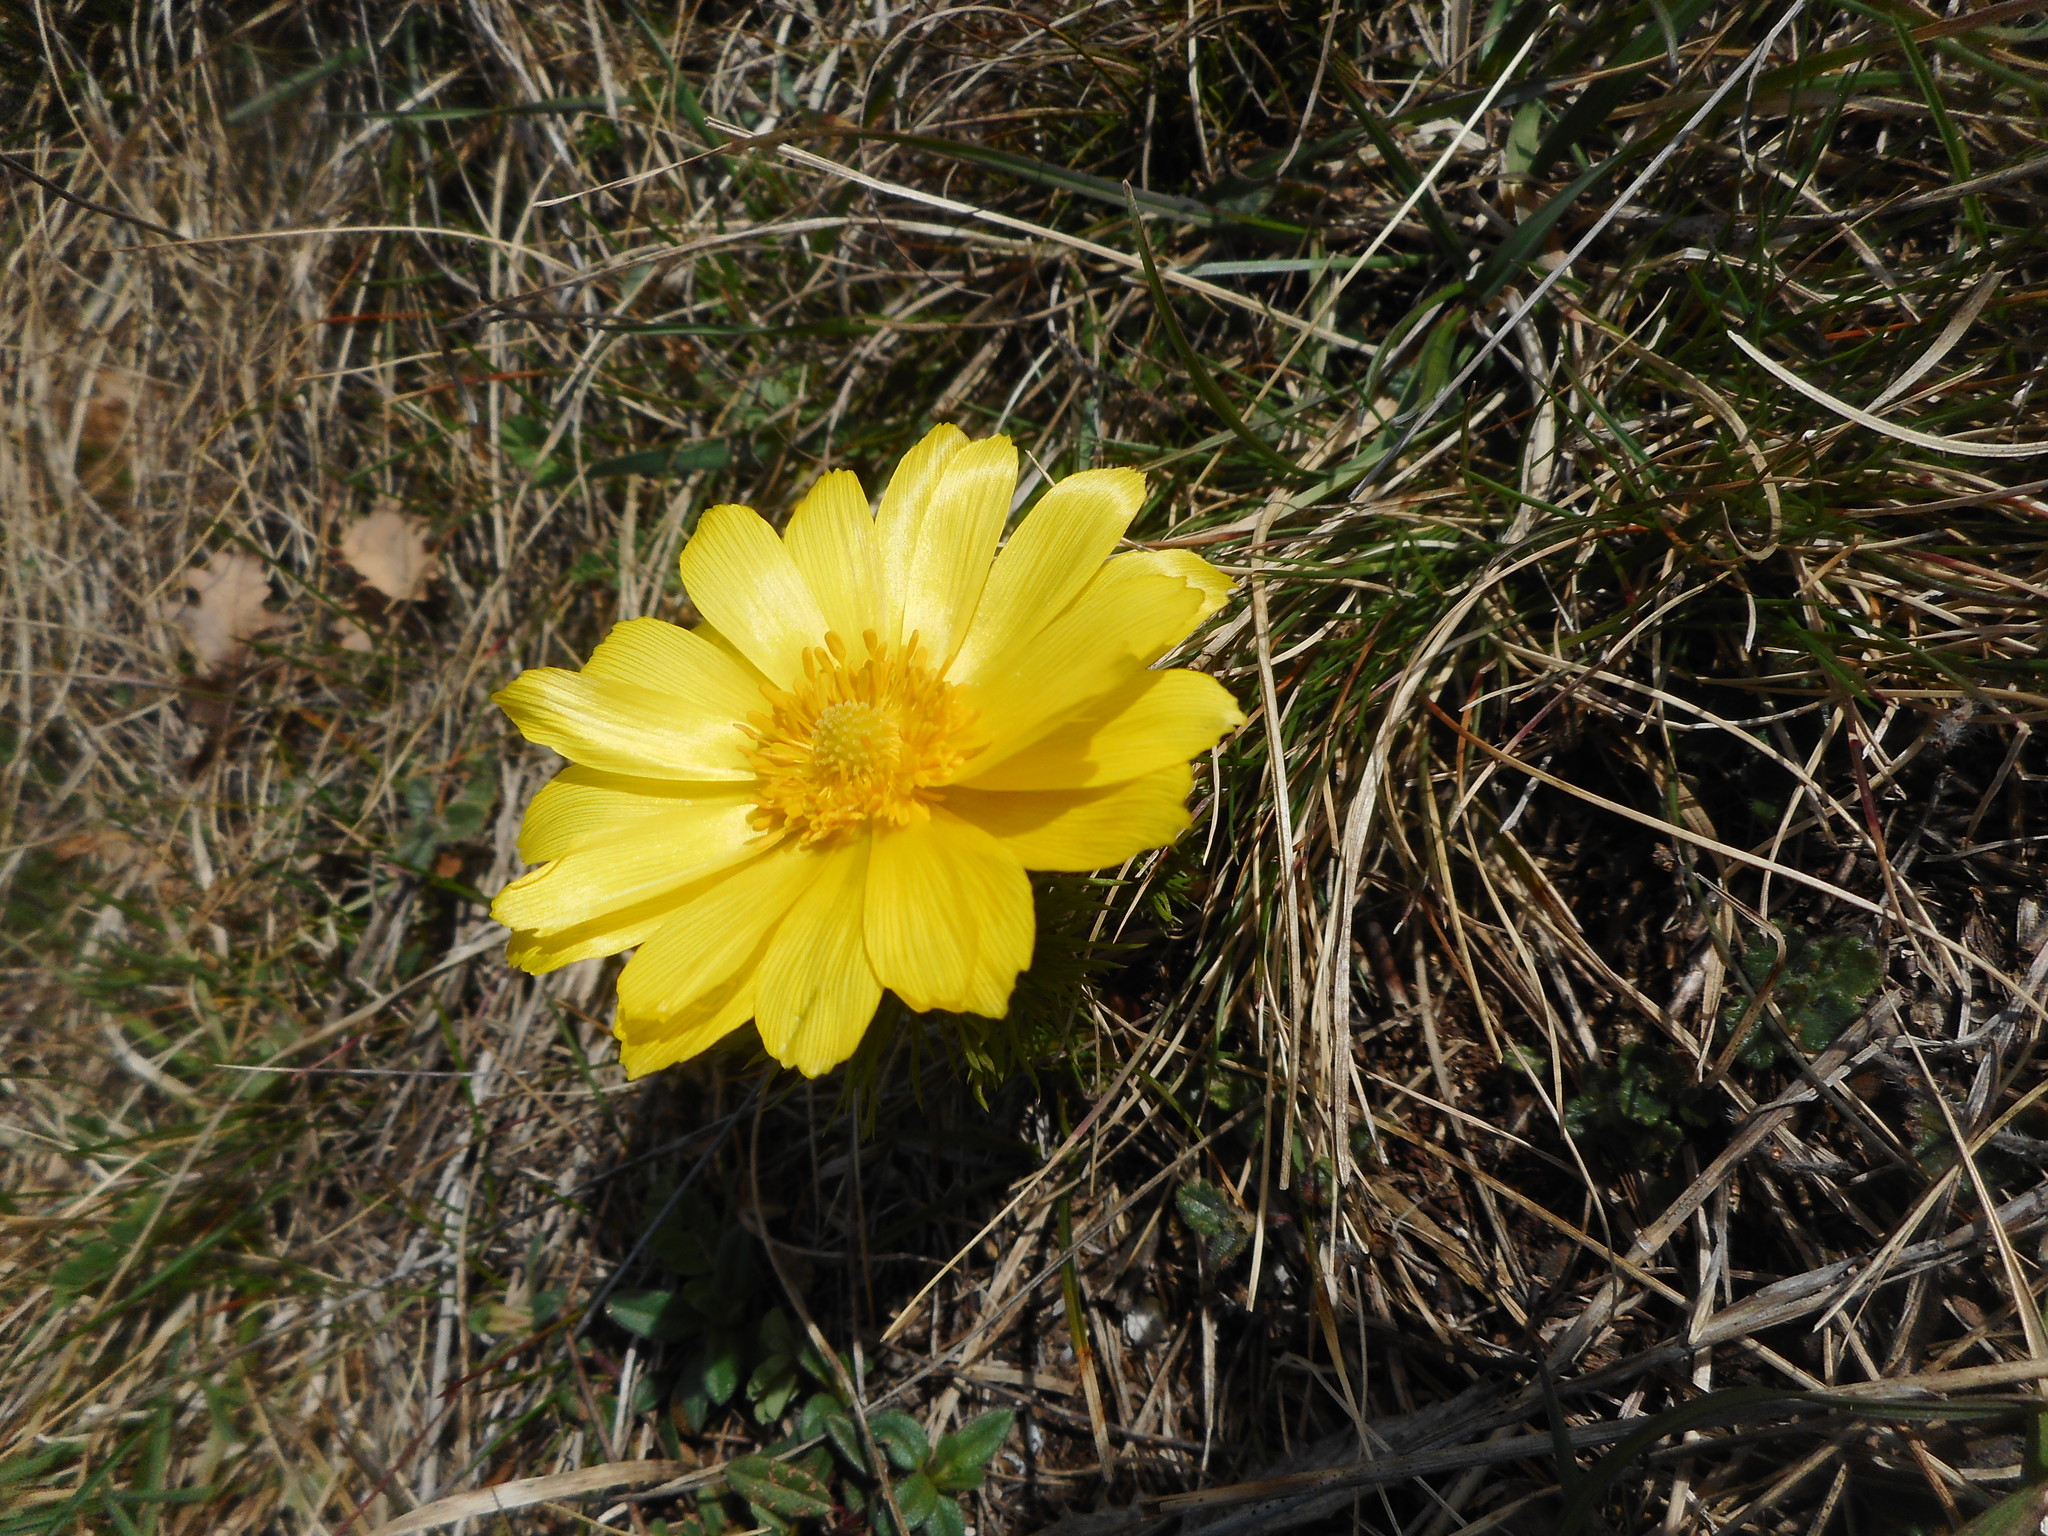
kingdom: Plantae
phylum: Tracheophyta
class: Magnoliopsida
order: Ranunculales
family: Ranunculaceae
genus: Adonis
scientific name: Adonis vernalis
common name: Yellow pheasants-eye
